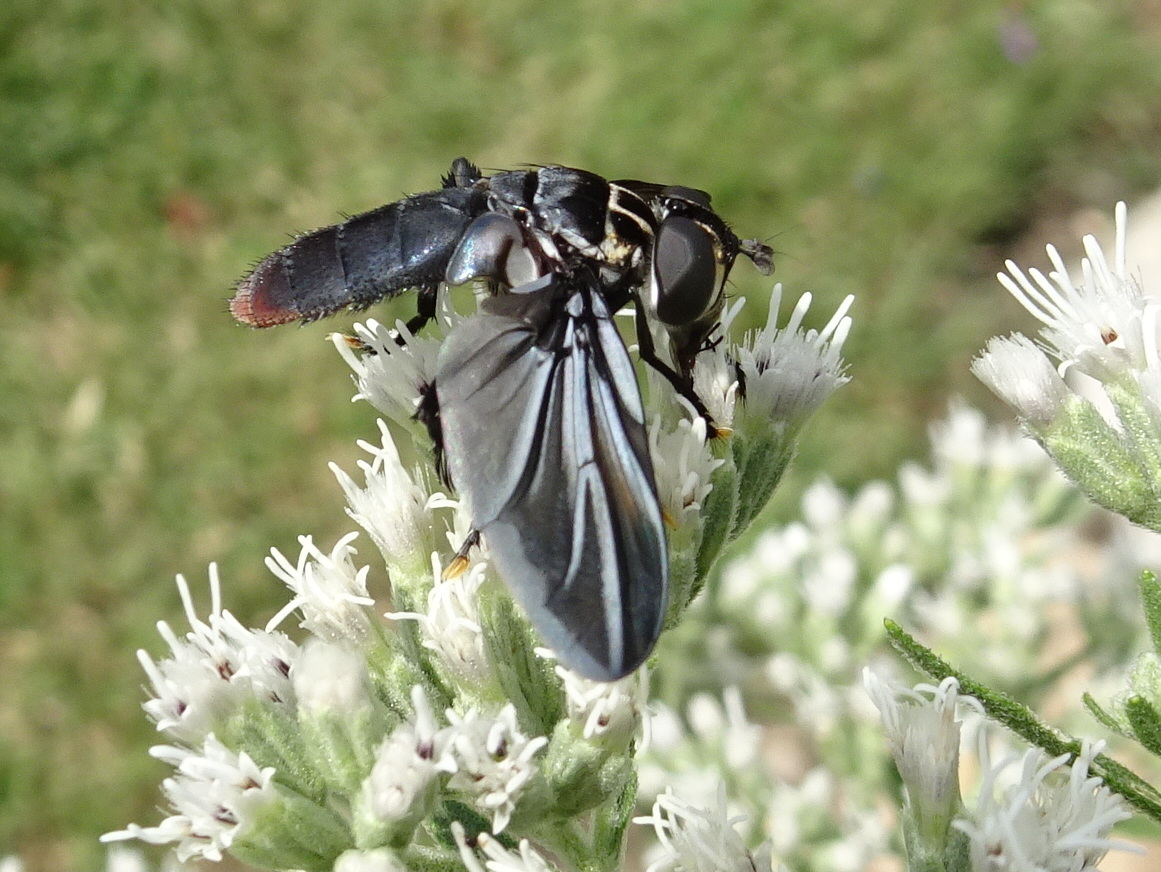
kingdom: Animalia
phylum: Arthropoda
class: Insecta
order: Diptera
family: Tachinidae
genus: Trichopoda
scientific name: Trichopoda lanipes
